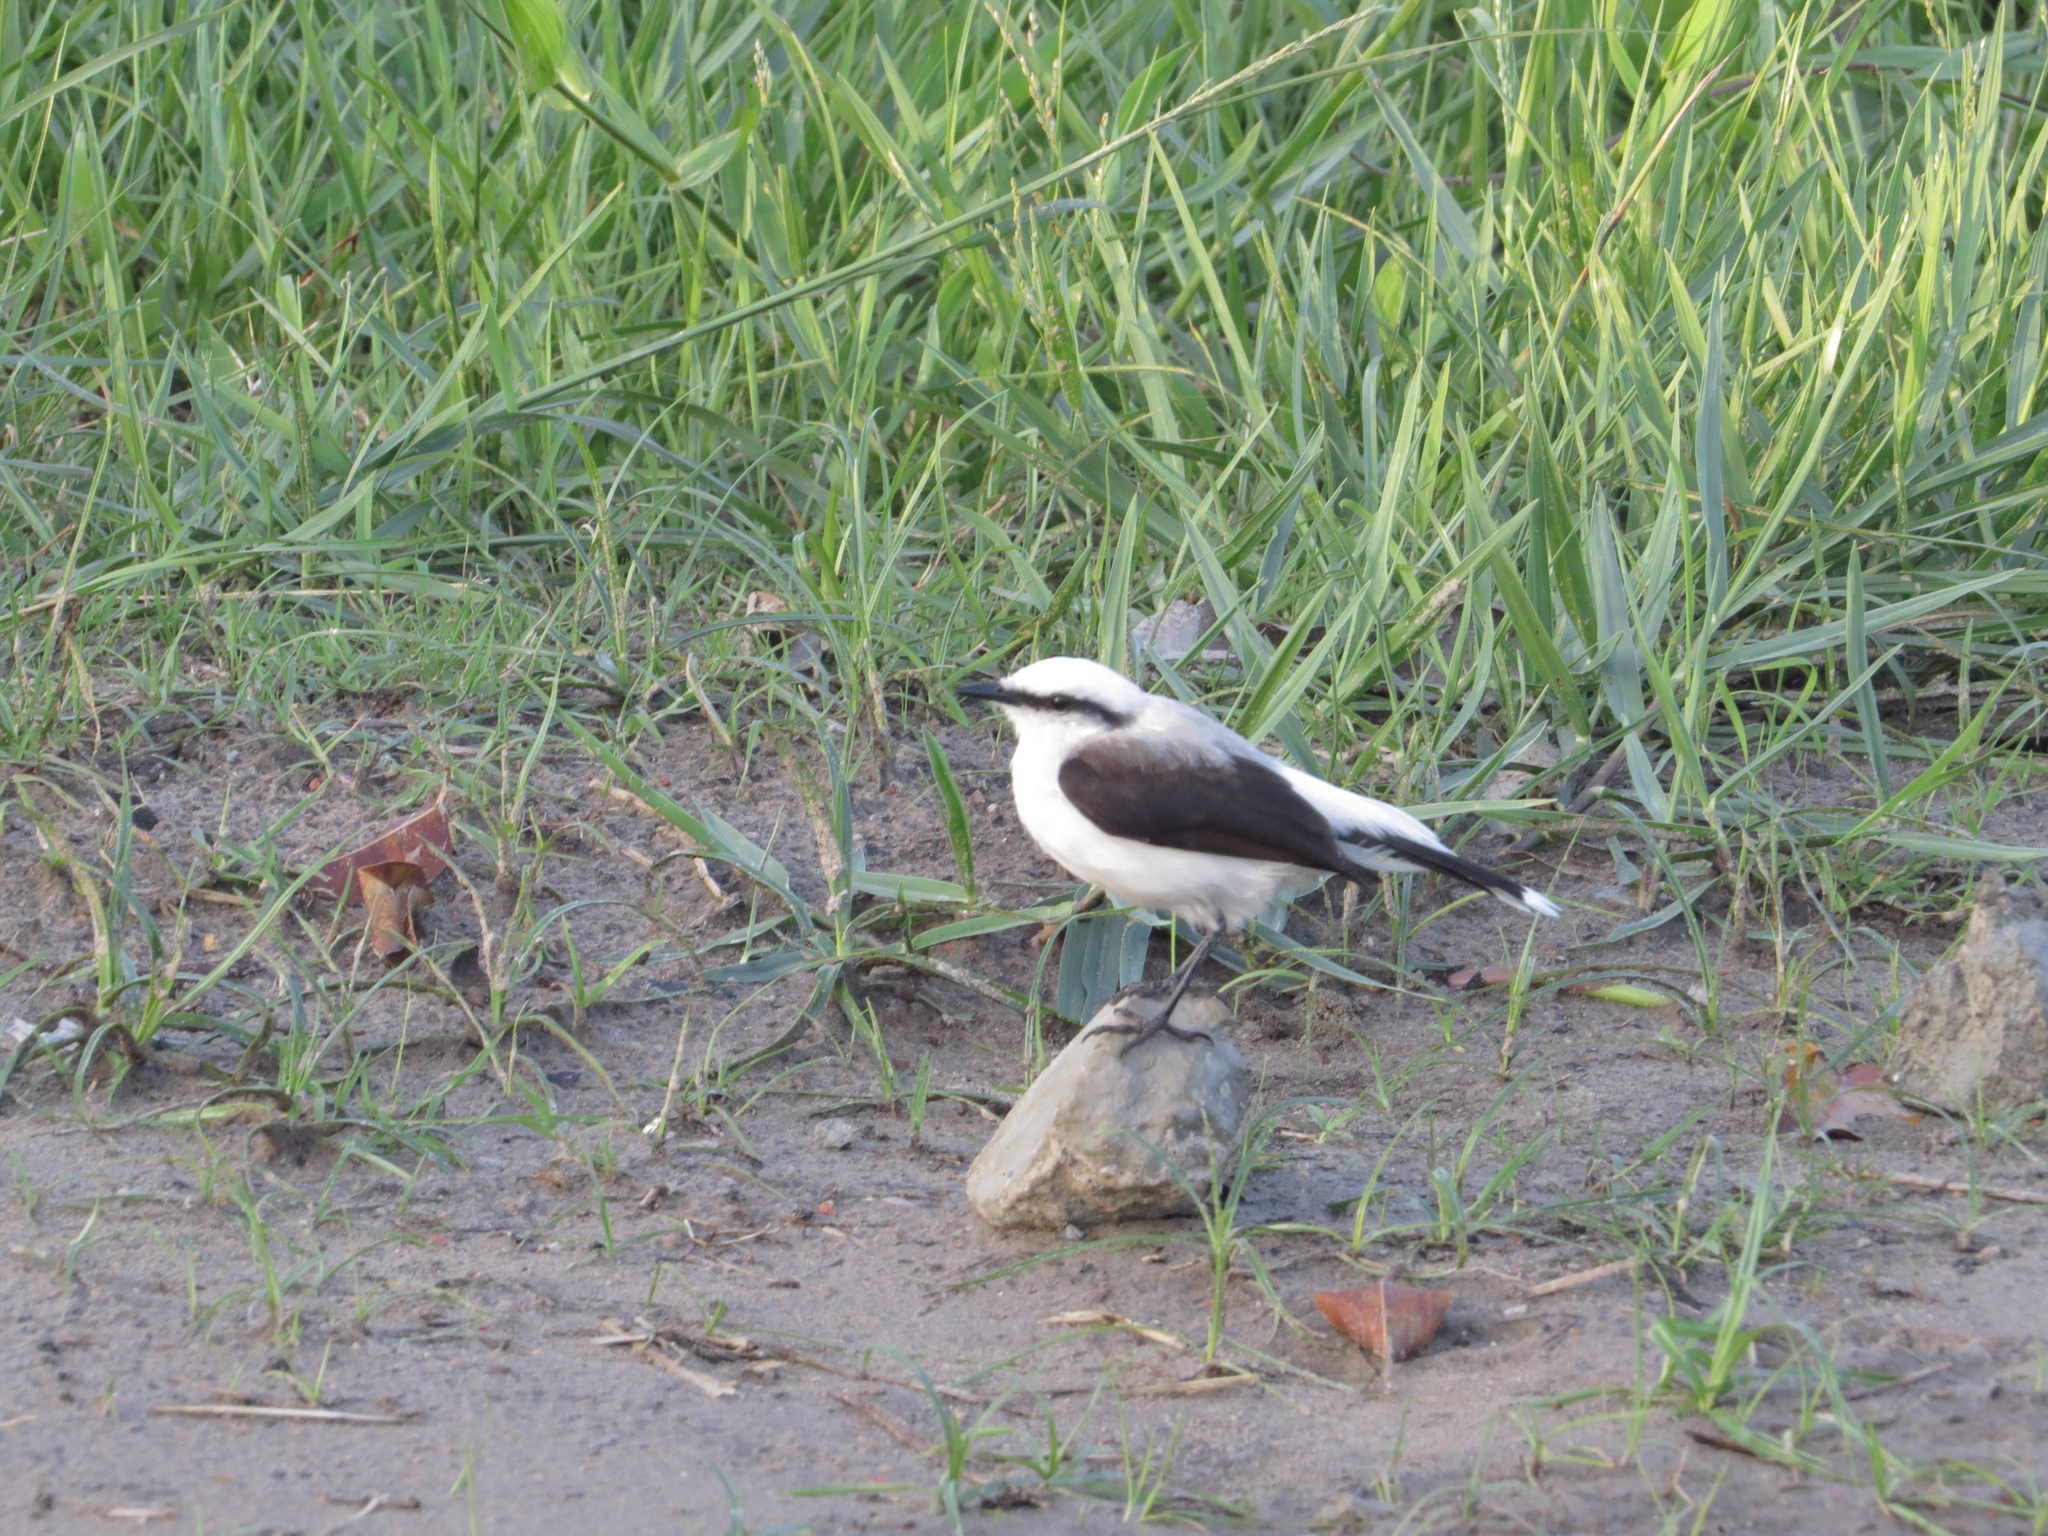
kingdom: Animalia
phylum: Chordata
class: Aves
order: Passeriformes
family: Tyrannidae
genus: Fluvicola
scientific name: Fluvicola nengeta
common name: Masked water tyrant
